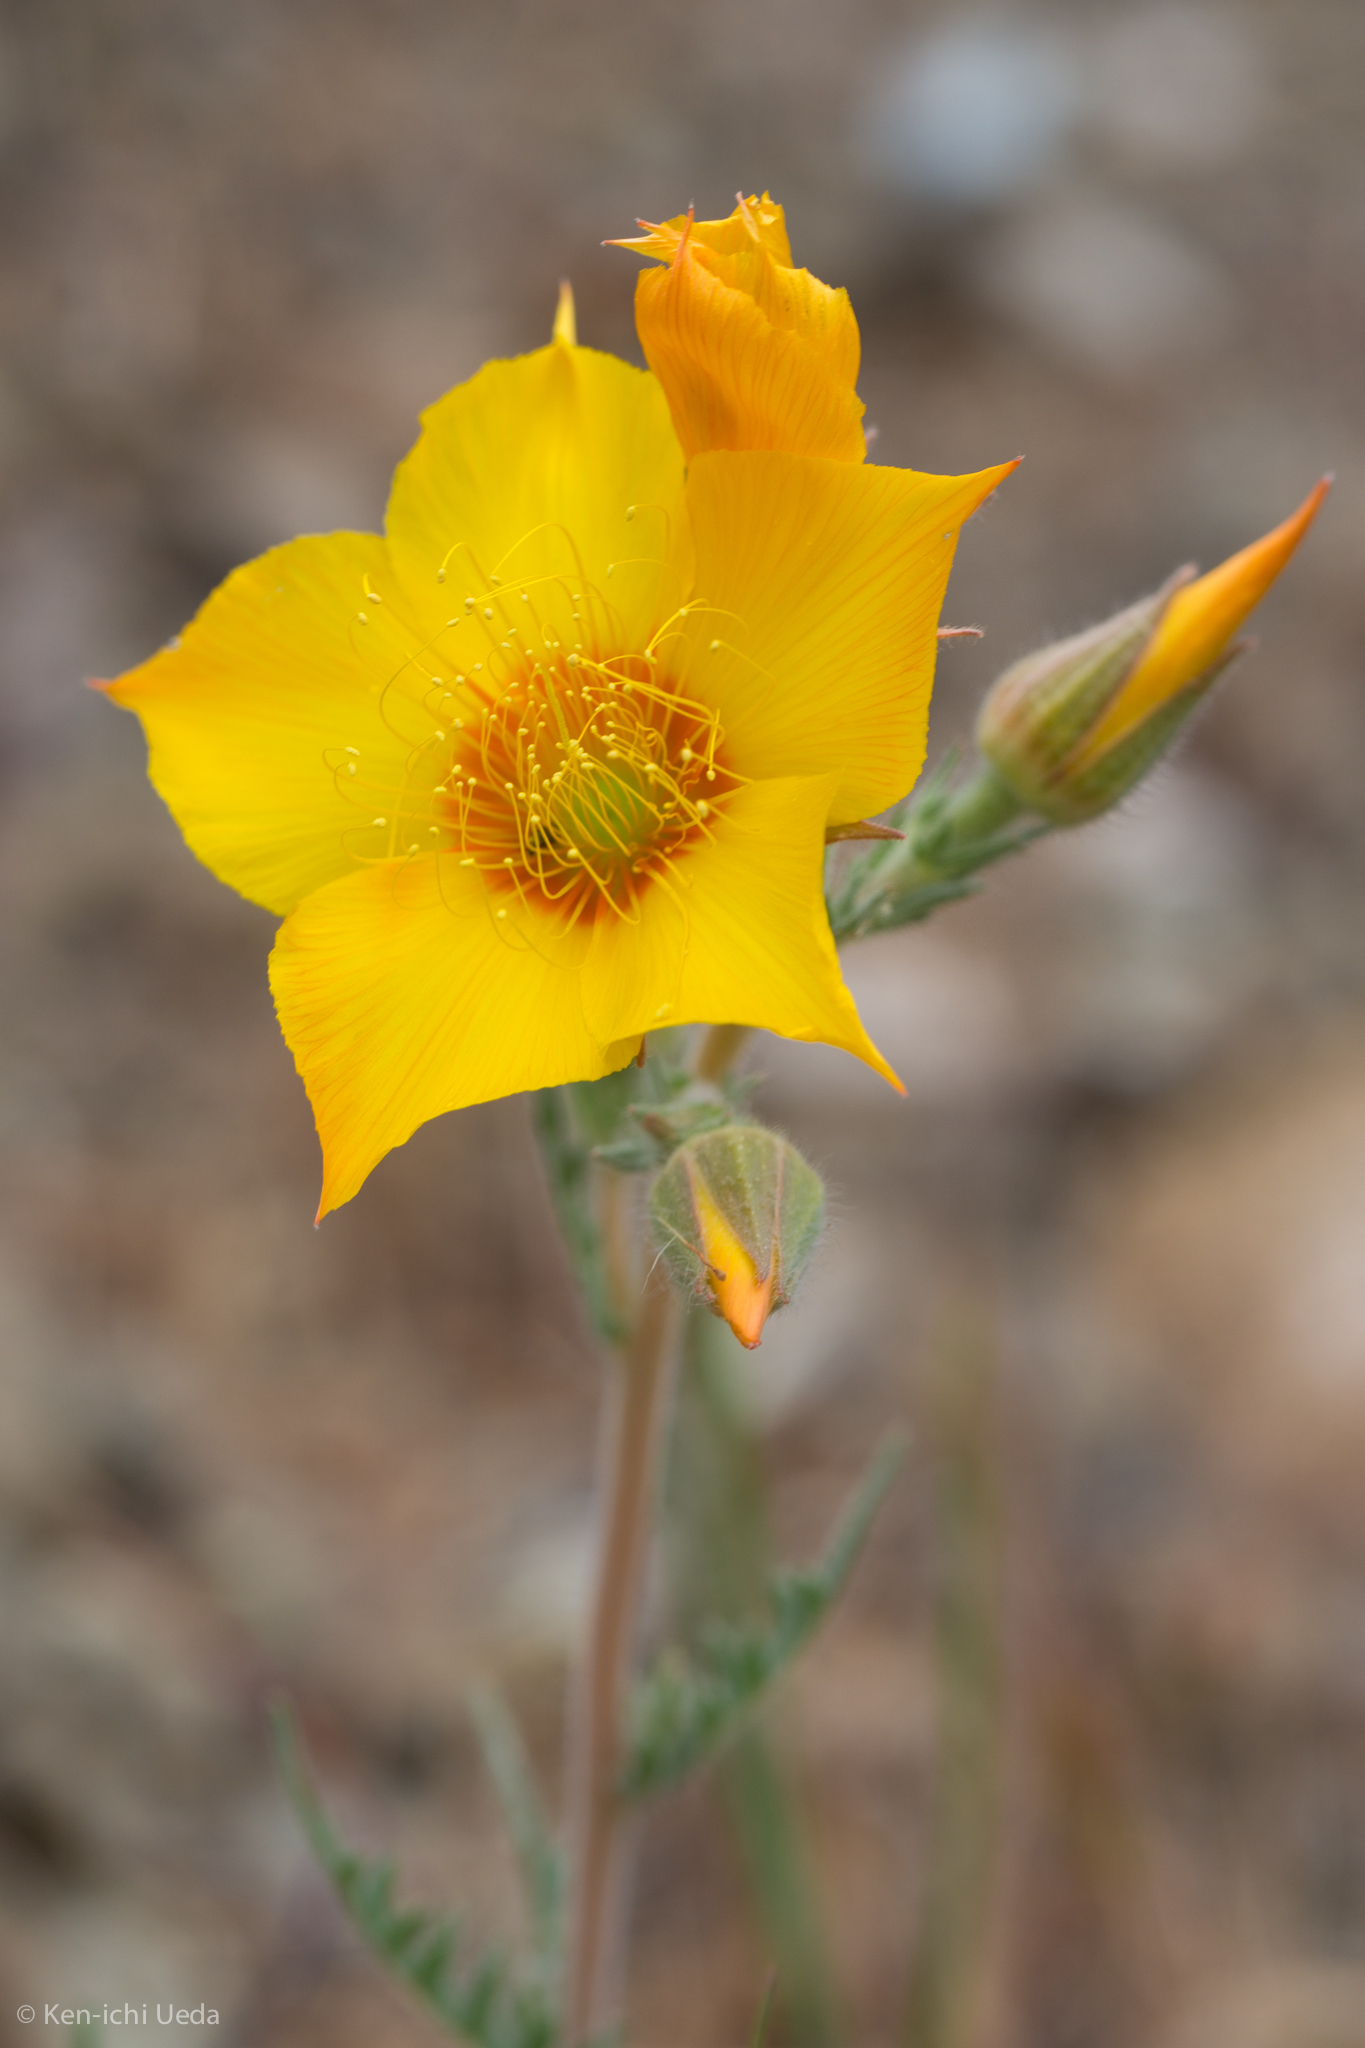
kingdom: Plantae
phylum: Tracheophyta
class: Magnoliopsida
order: Cornales
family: Loasaceae
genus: Mentzelia
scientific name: Mentzelia lindleyi
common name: Golden bartonia
